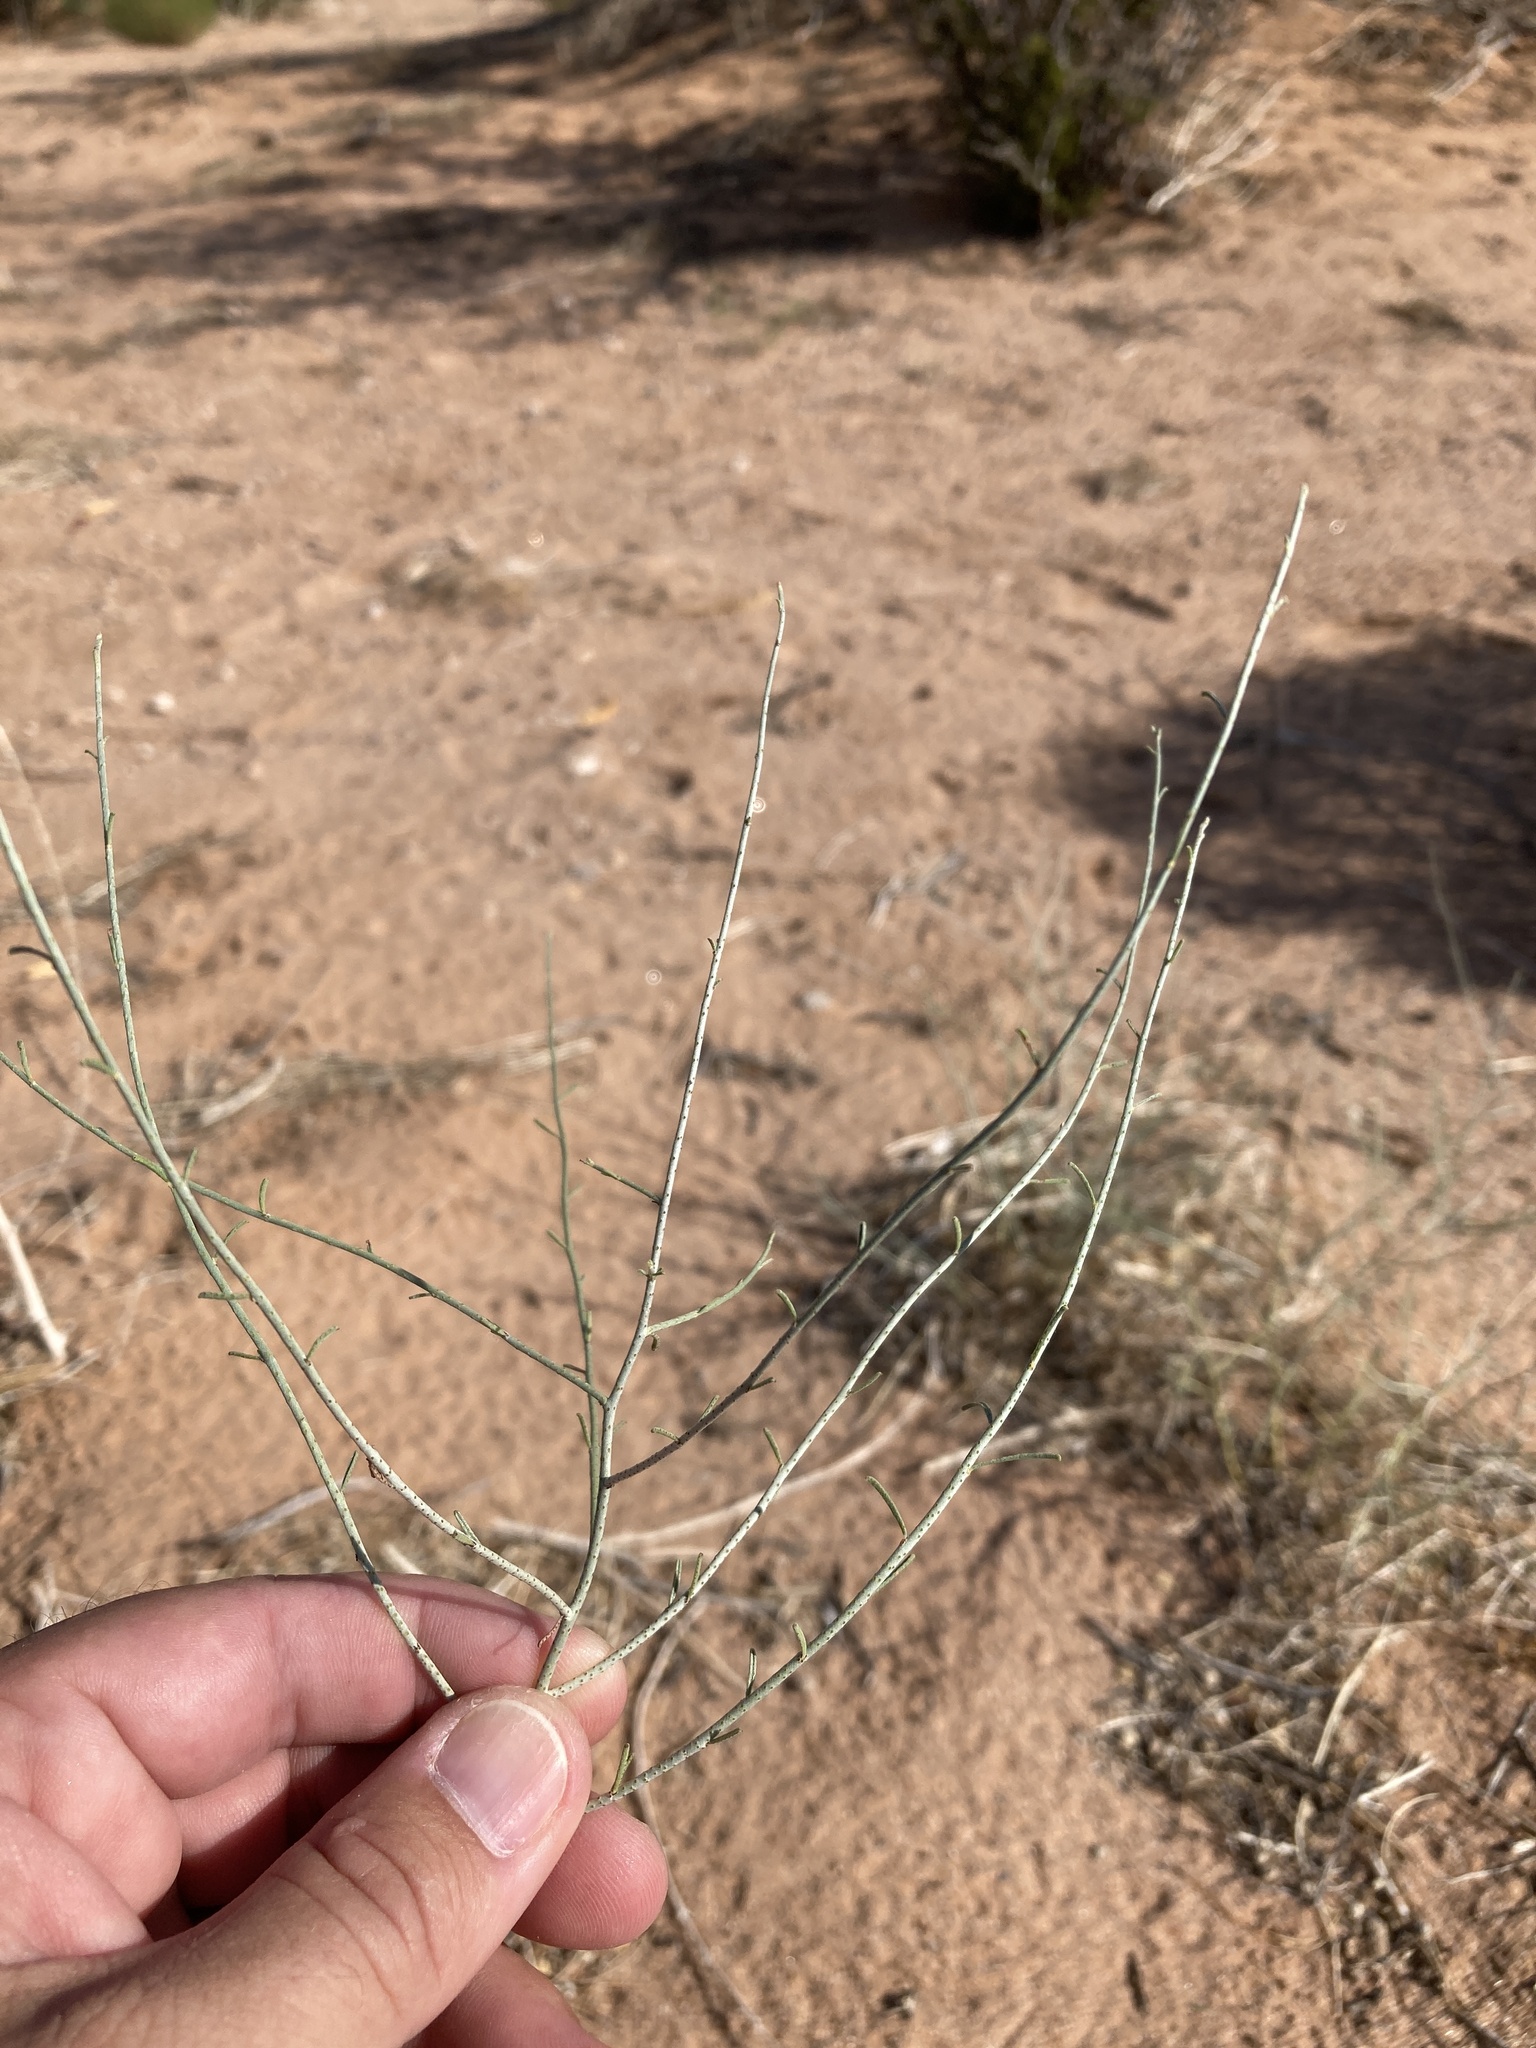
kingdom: Plantae
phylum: Tracheophyta
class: Magnoliopsida
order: Fabales
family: Fabaceae
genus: Psorothamnus
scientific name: Psorothamnus scoparius
